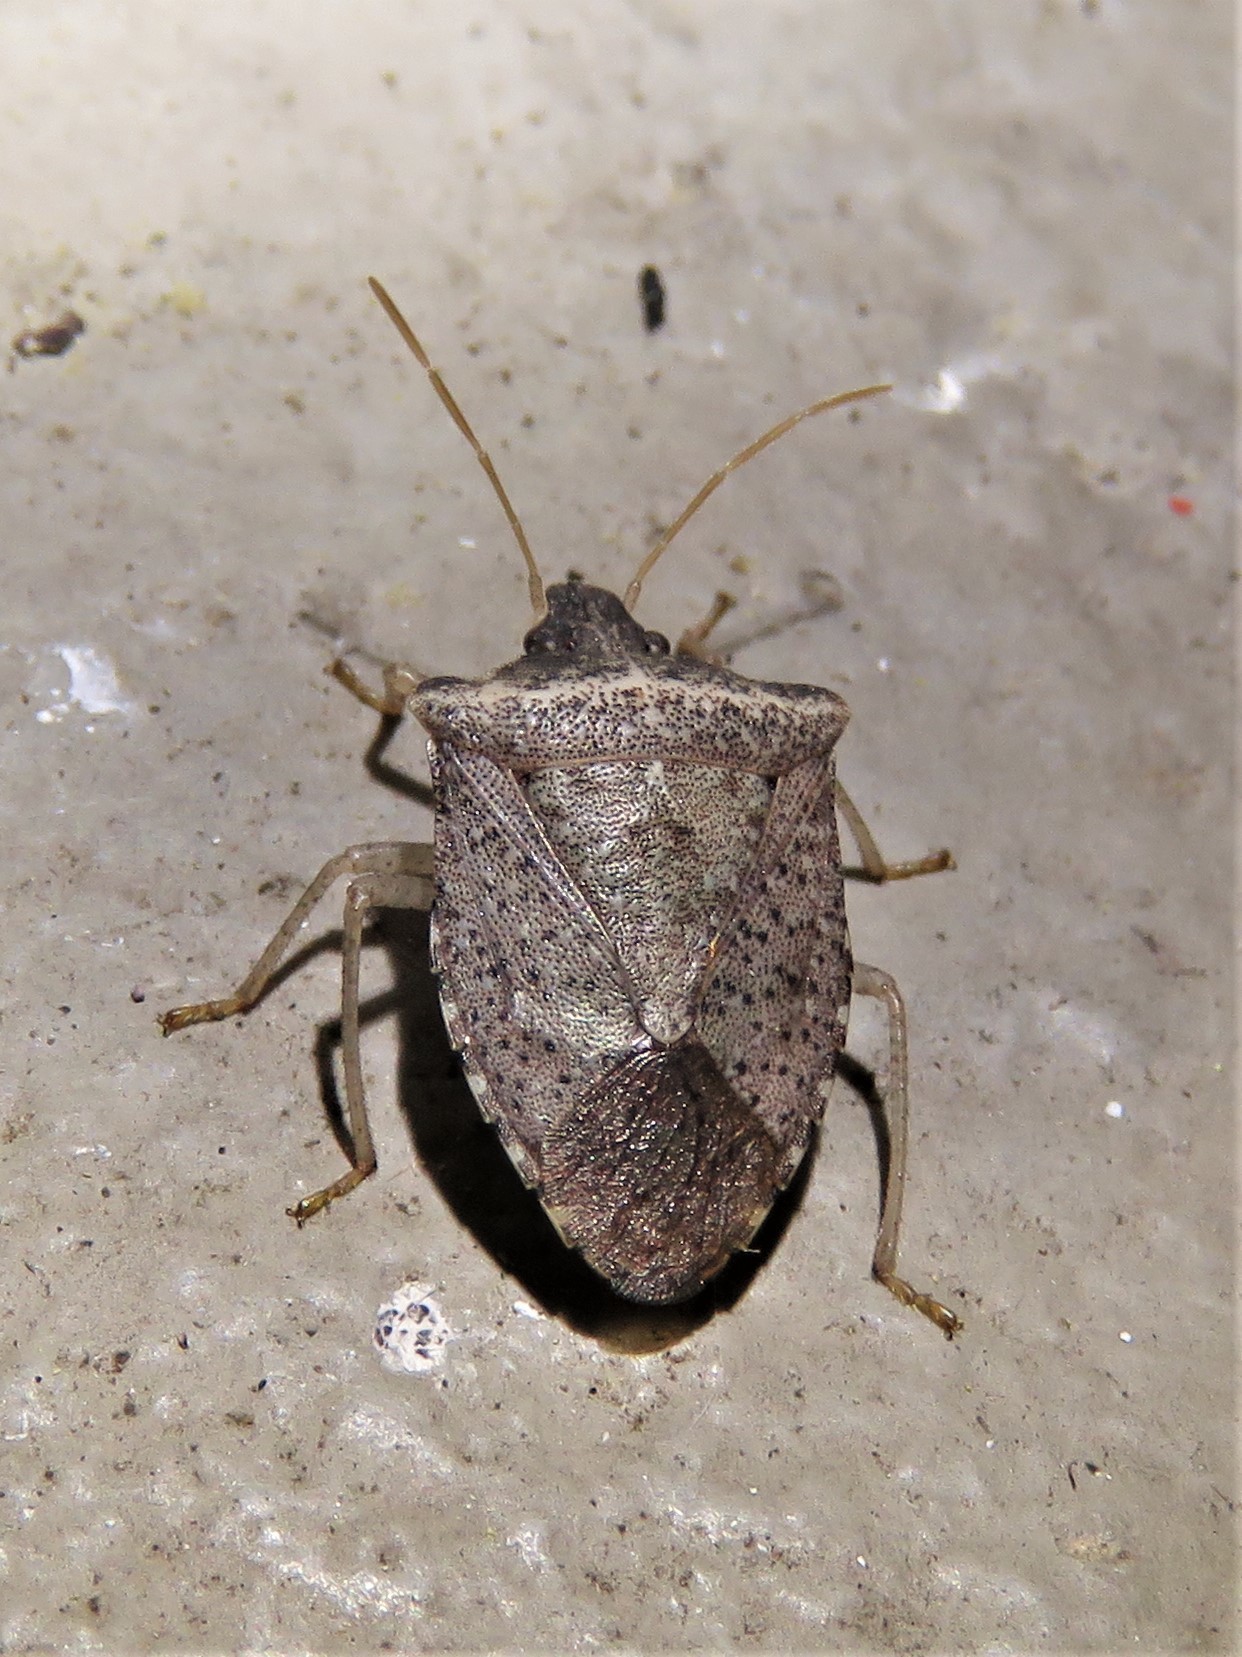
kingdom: Animalia
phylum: Arthropoda
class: Insecta
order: Hemiptera
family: Pentatomidae
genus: Euschistus
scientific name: Euschistus obscurus
